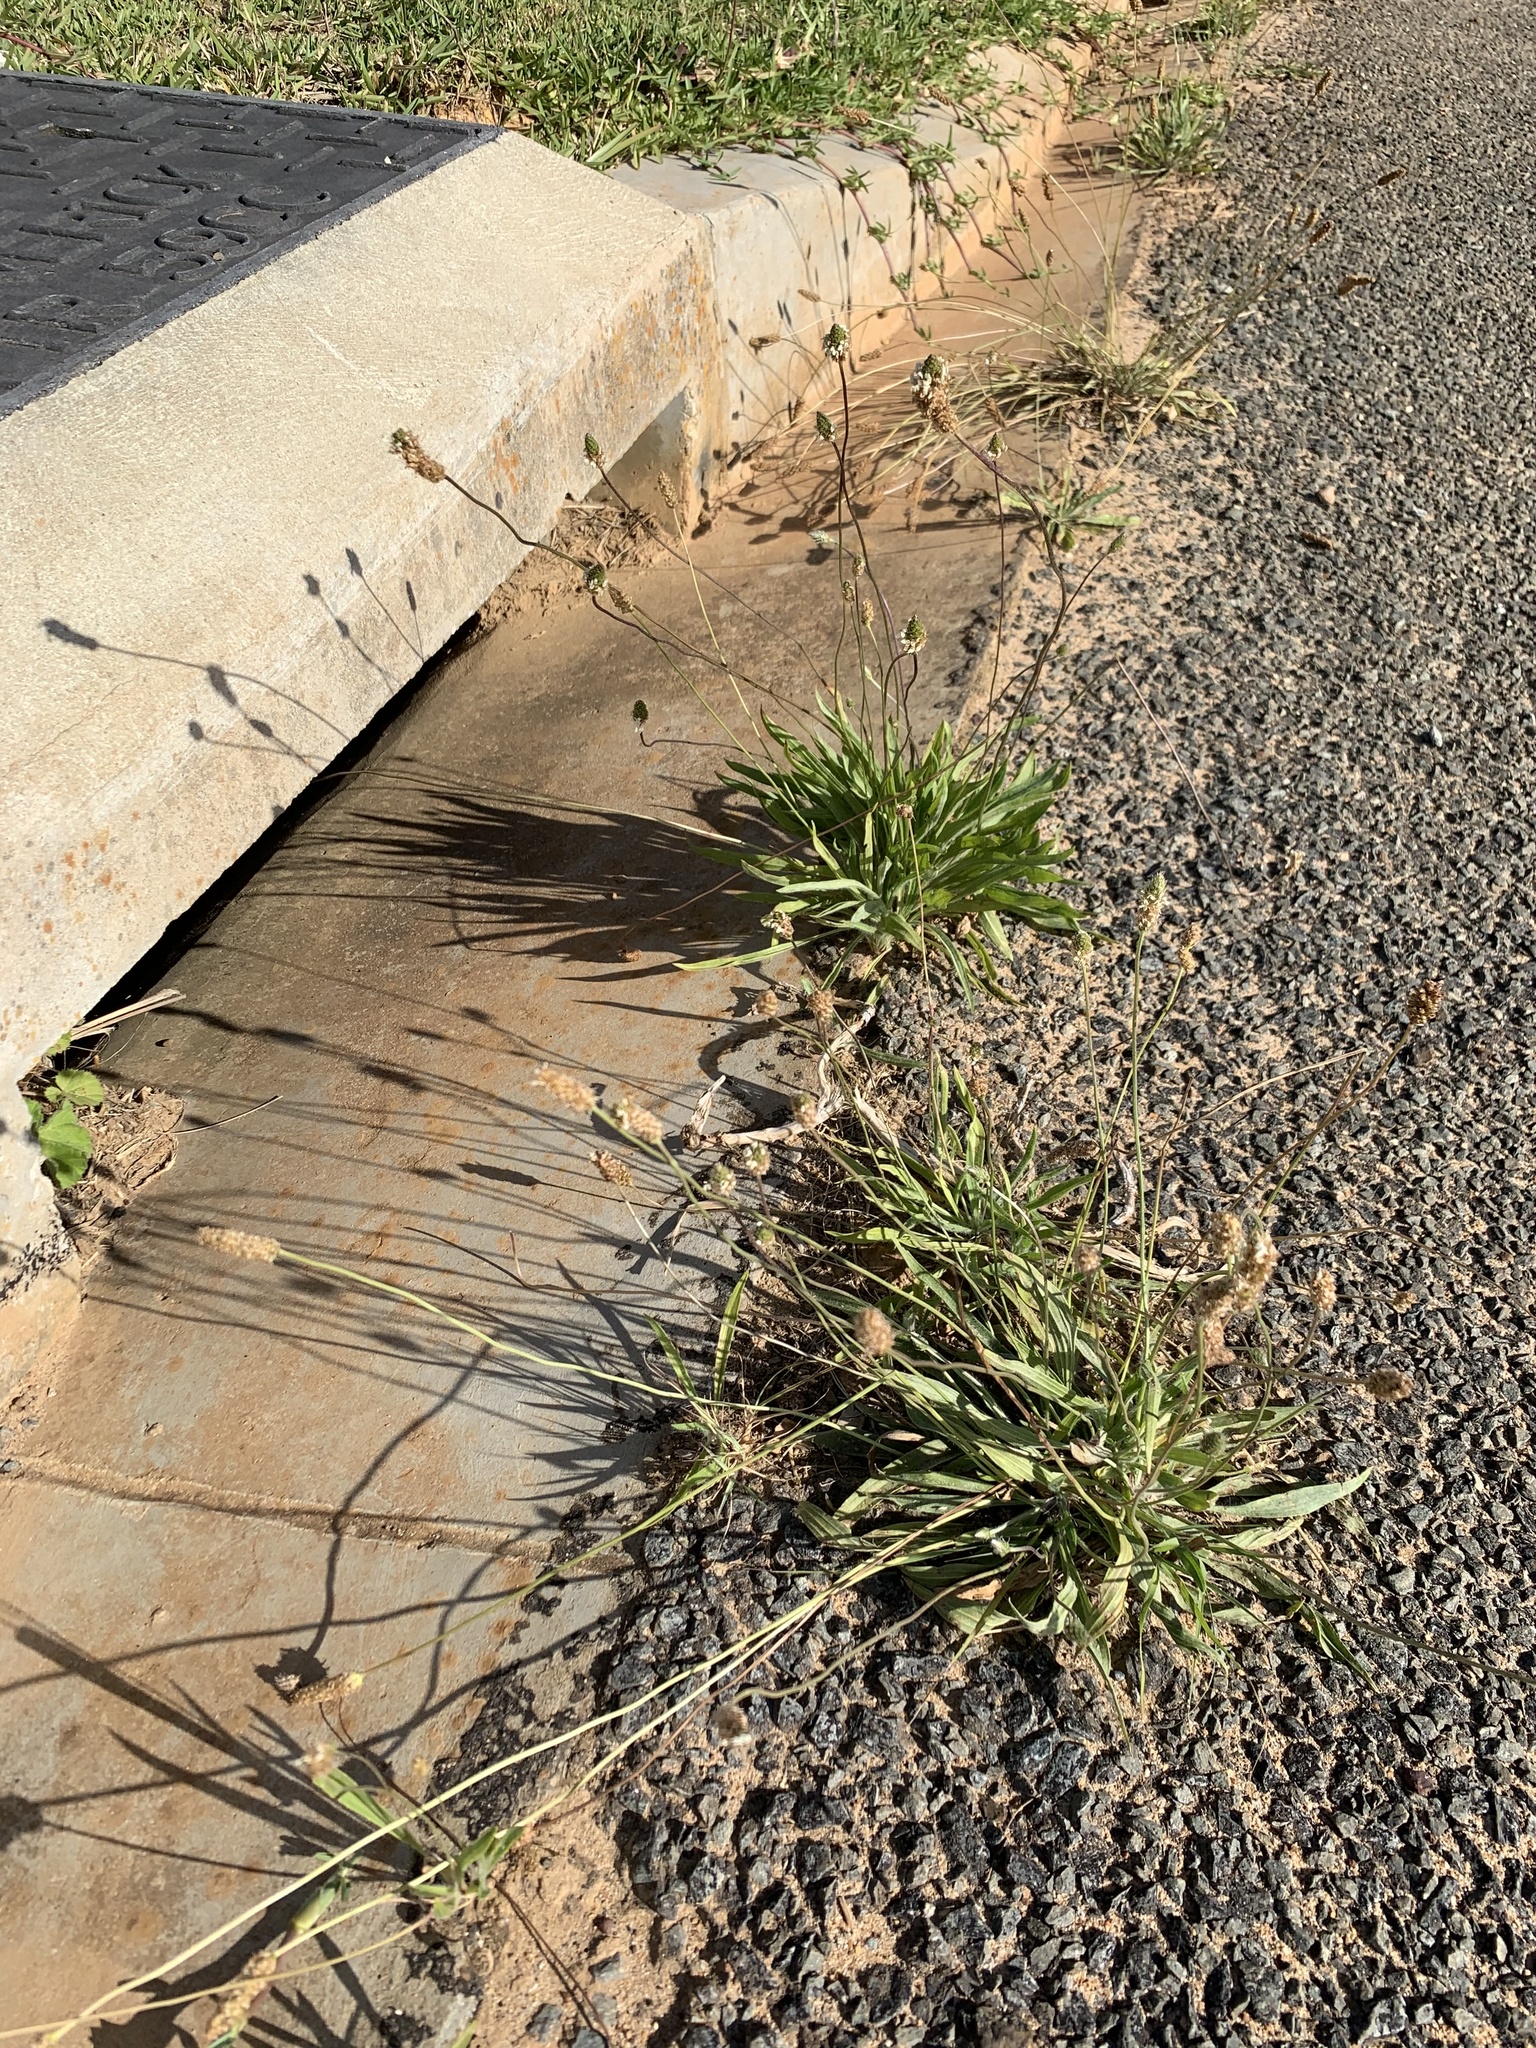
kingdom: Plantae
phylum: Tracheophyta
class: Magnoliopsida
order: Lamiales
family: Plantaginaceae
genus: Plantago
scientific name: Plantago lanceolata
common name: Ribwort plantain
